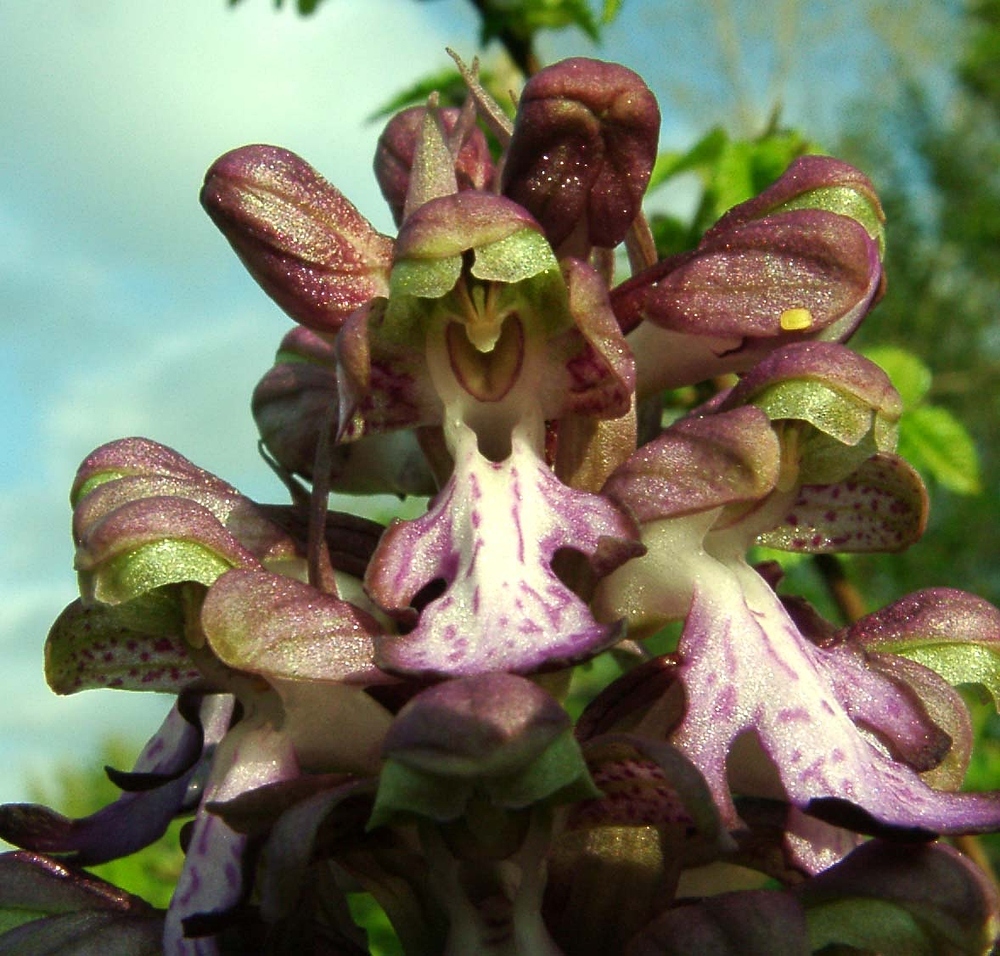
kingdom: Plantae
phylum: Tracheophyta
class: Liliopsida
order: Asparagales
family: Orchidaceae
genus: Himantoglossum
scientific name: Himantoglossum robertianum
